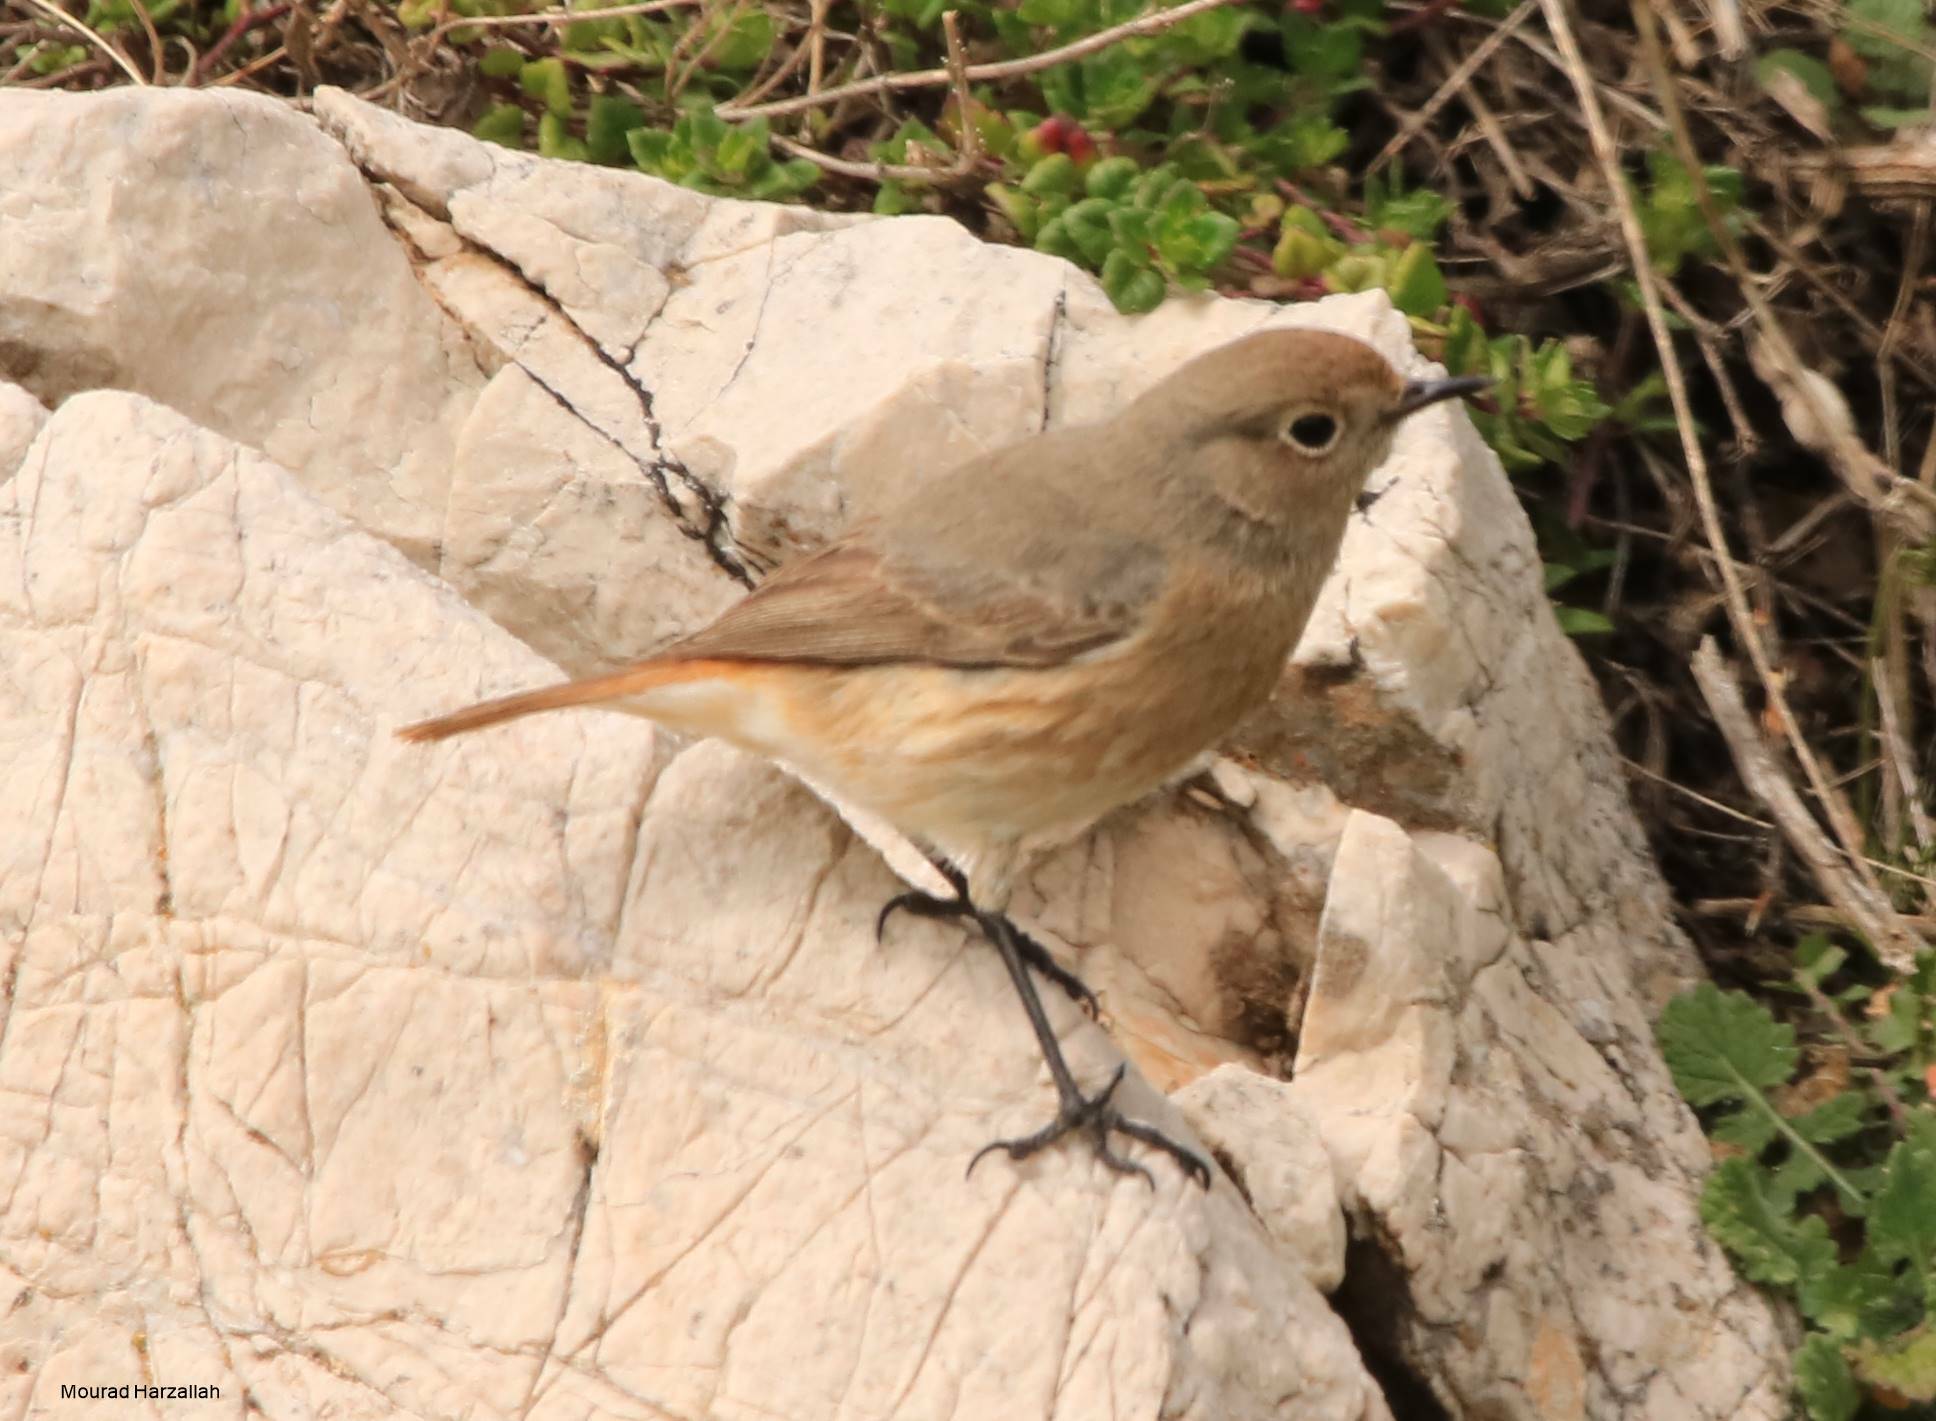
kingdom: Animalia
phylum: Chordata
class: Aves
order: Passeriformes
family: Muscicapidae
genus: Phoenicurus
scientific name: Phoenicurus phoenicurus
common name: Common redstart
